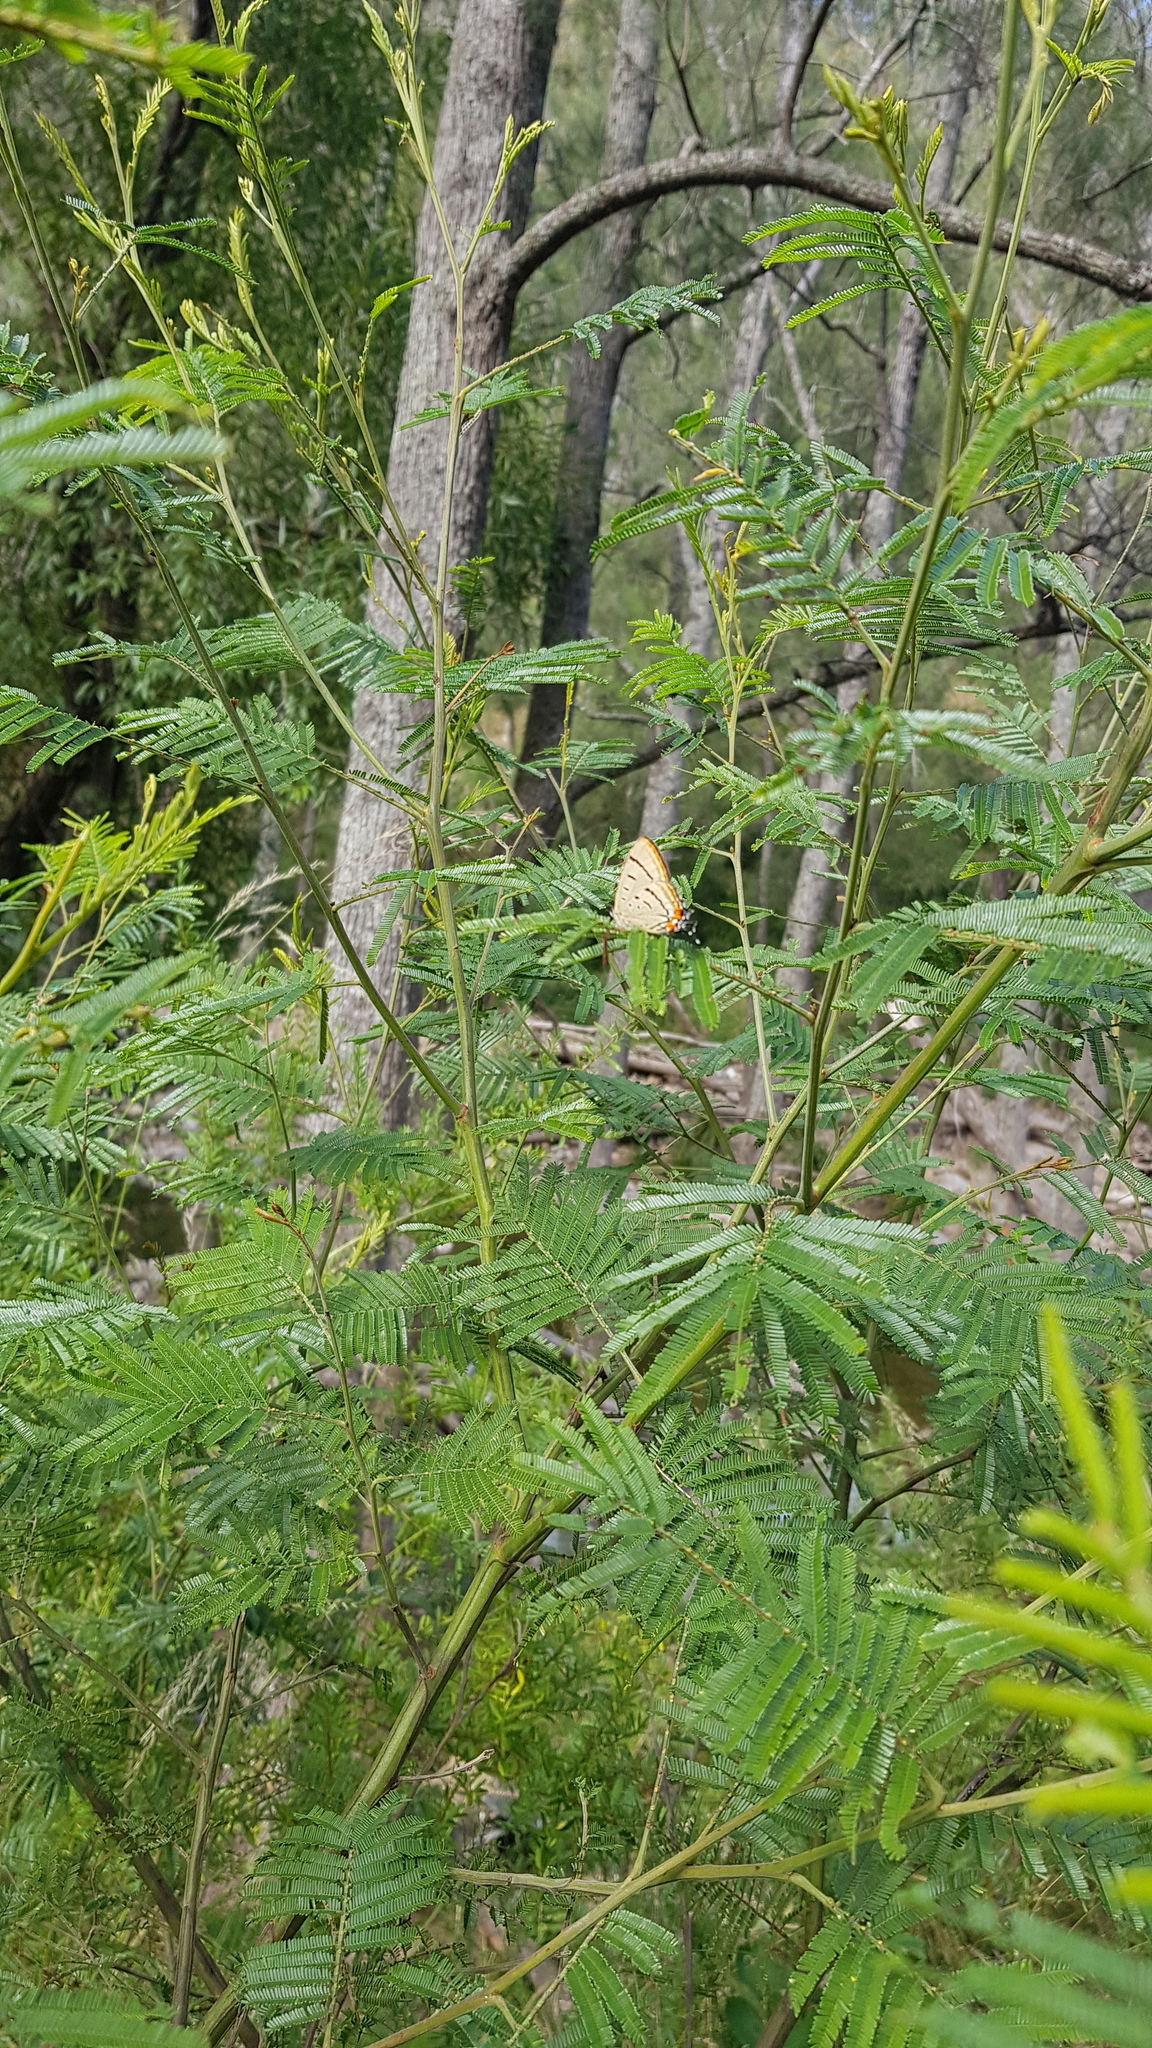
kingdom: Animalia
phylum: Arthropoda
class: Insecta
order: Lepidoptera
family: Lycaenidae
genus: Jalmenus
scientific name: Jalmenus evagoras
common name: Common imperial blue
